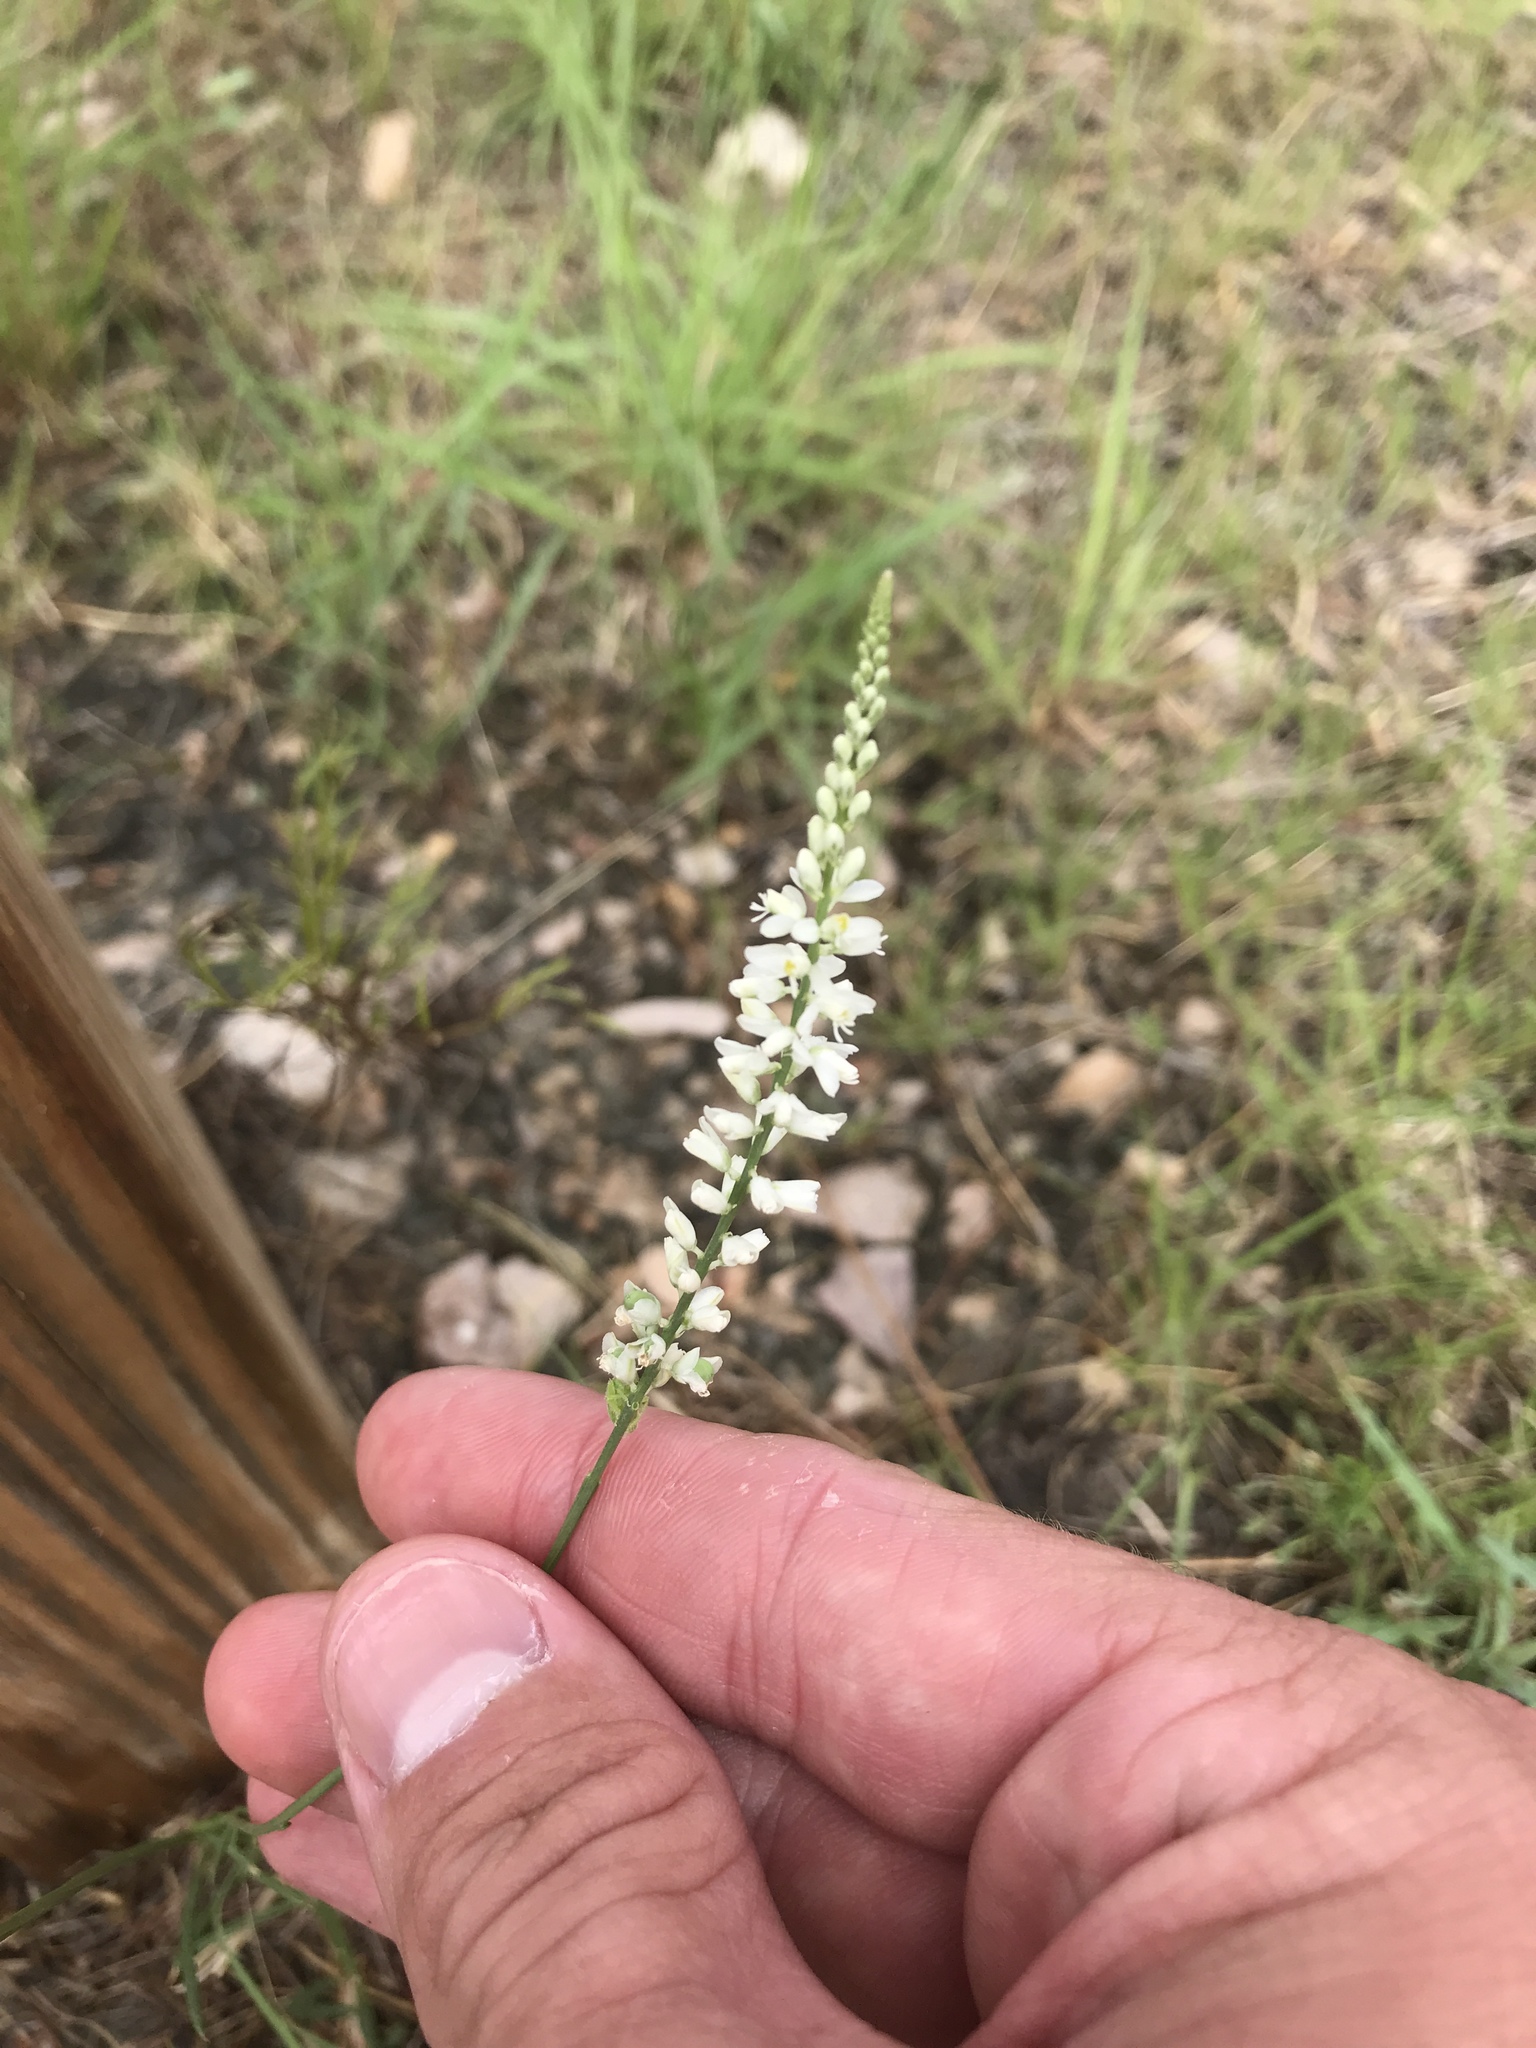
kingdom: Plantae
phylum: Tracheophyta
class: Magnoliopsida
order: Fabales
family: Polygalaceae
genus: Polygala
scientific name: Polygala alba
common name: White milkwort
